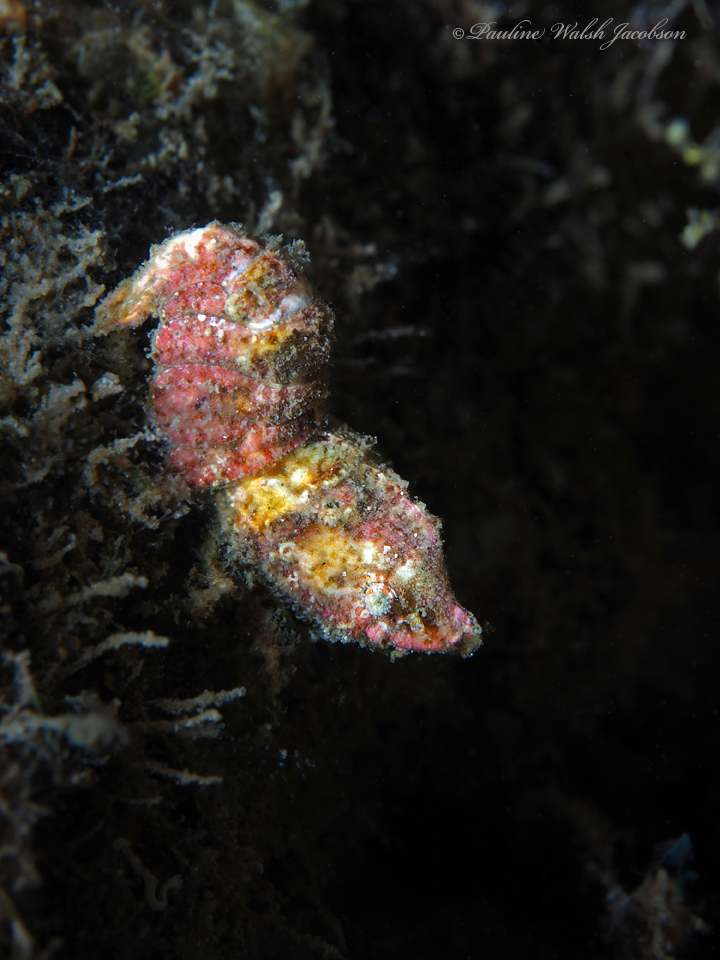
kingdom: Animalia
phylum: Arthropoda
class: Malacostraca
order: Decapoda
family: Hippolytidae
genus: Trachycaris
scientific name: Trachycaris rugosa
